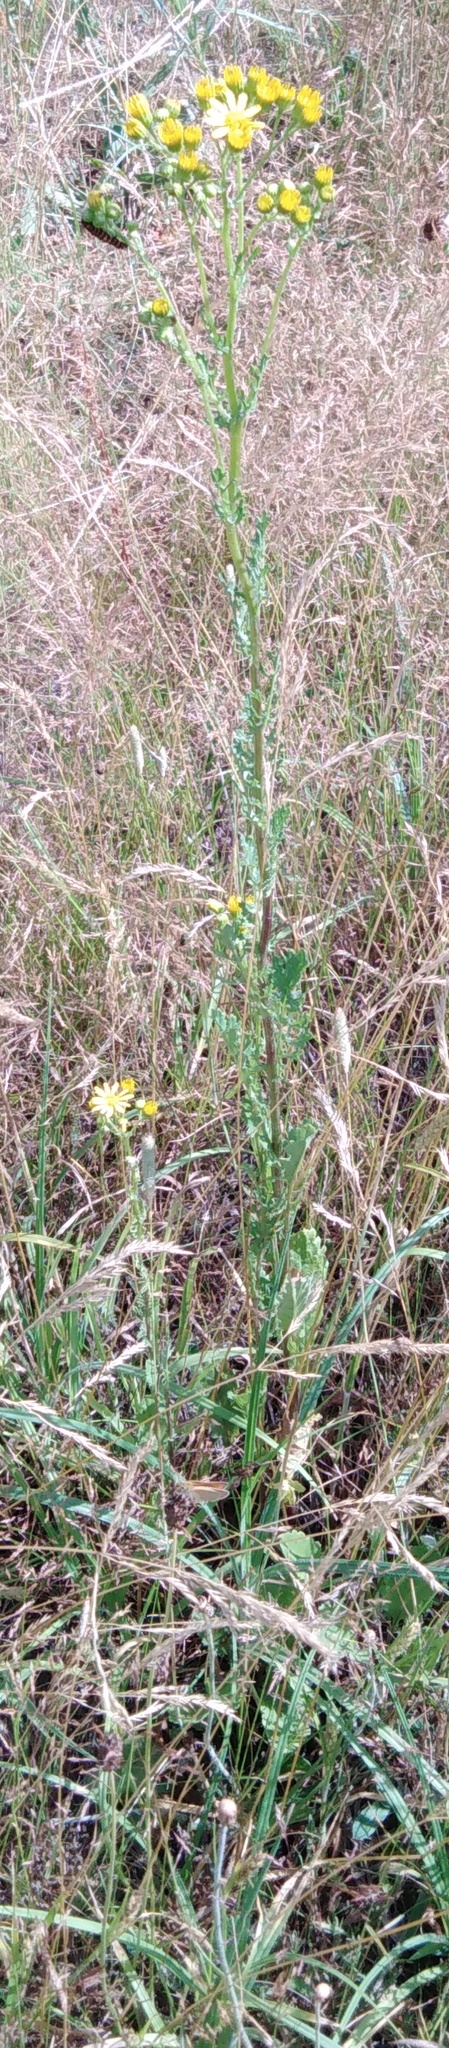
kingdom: Plantae
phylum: Tracheophyta
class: Magnoliopsida
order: Asterales
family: Asteraceae
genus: Jacobaea
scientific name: Jacobaea vulgaris
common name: Stinking willie
